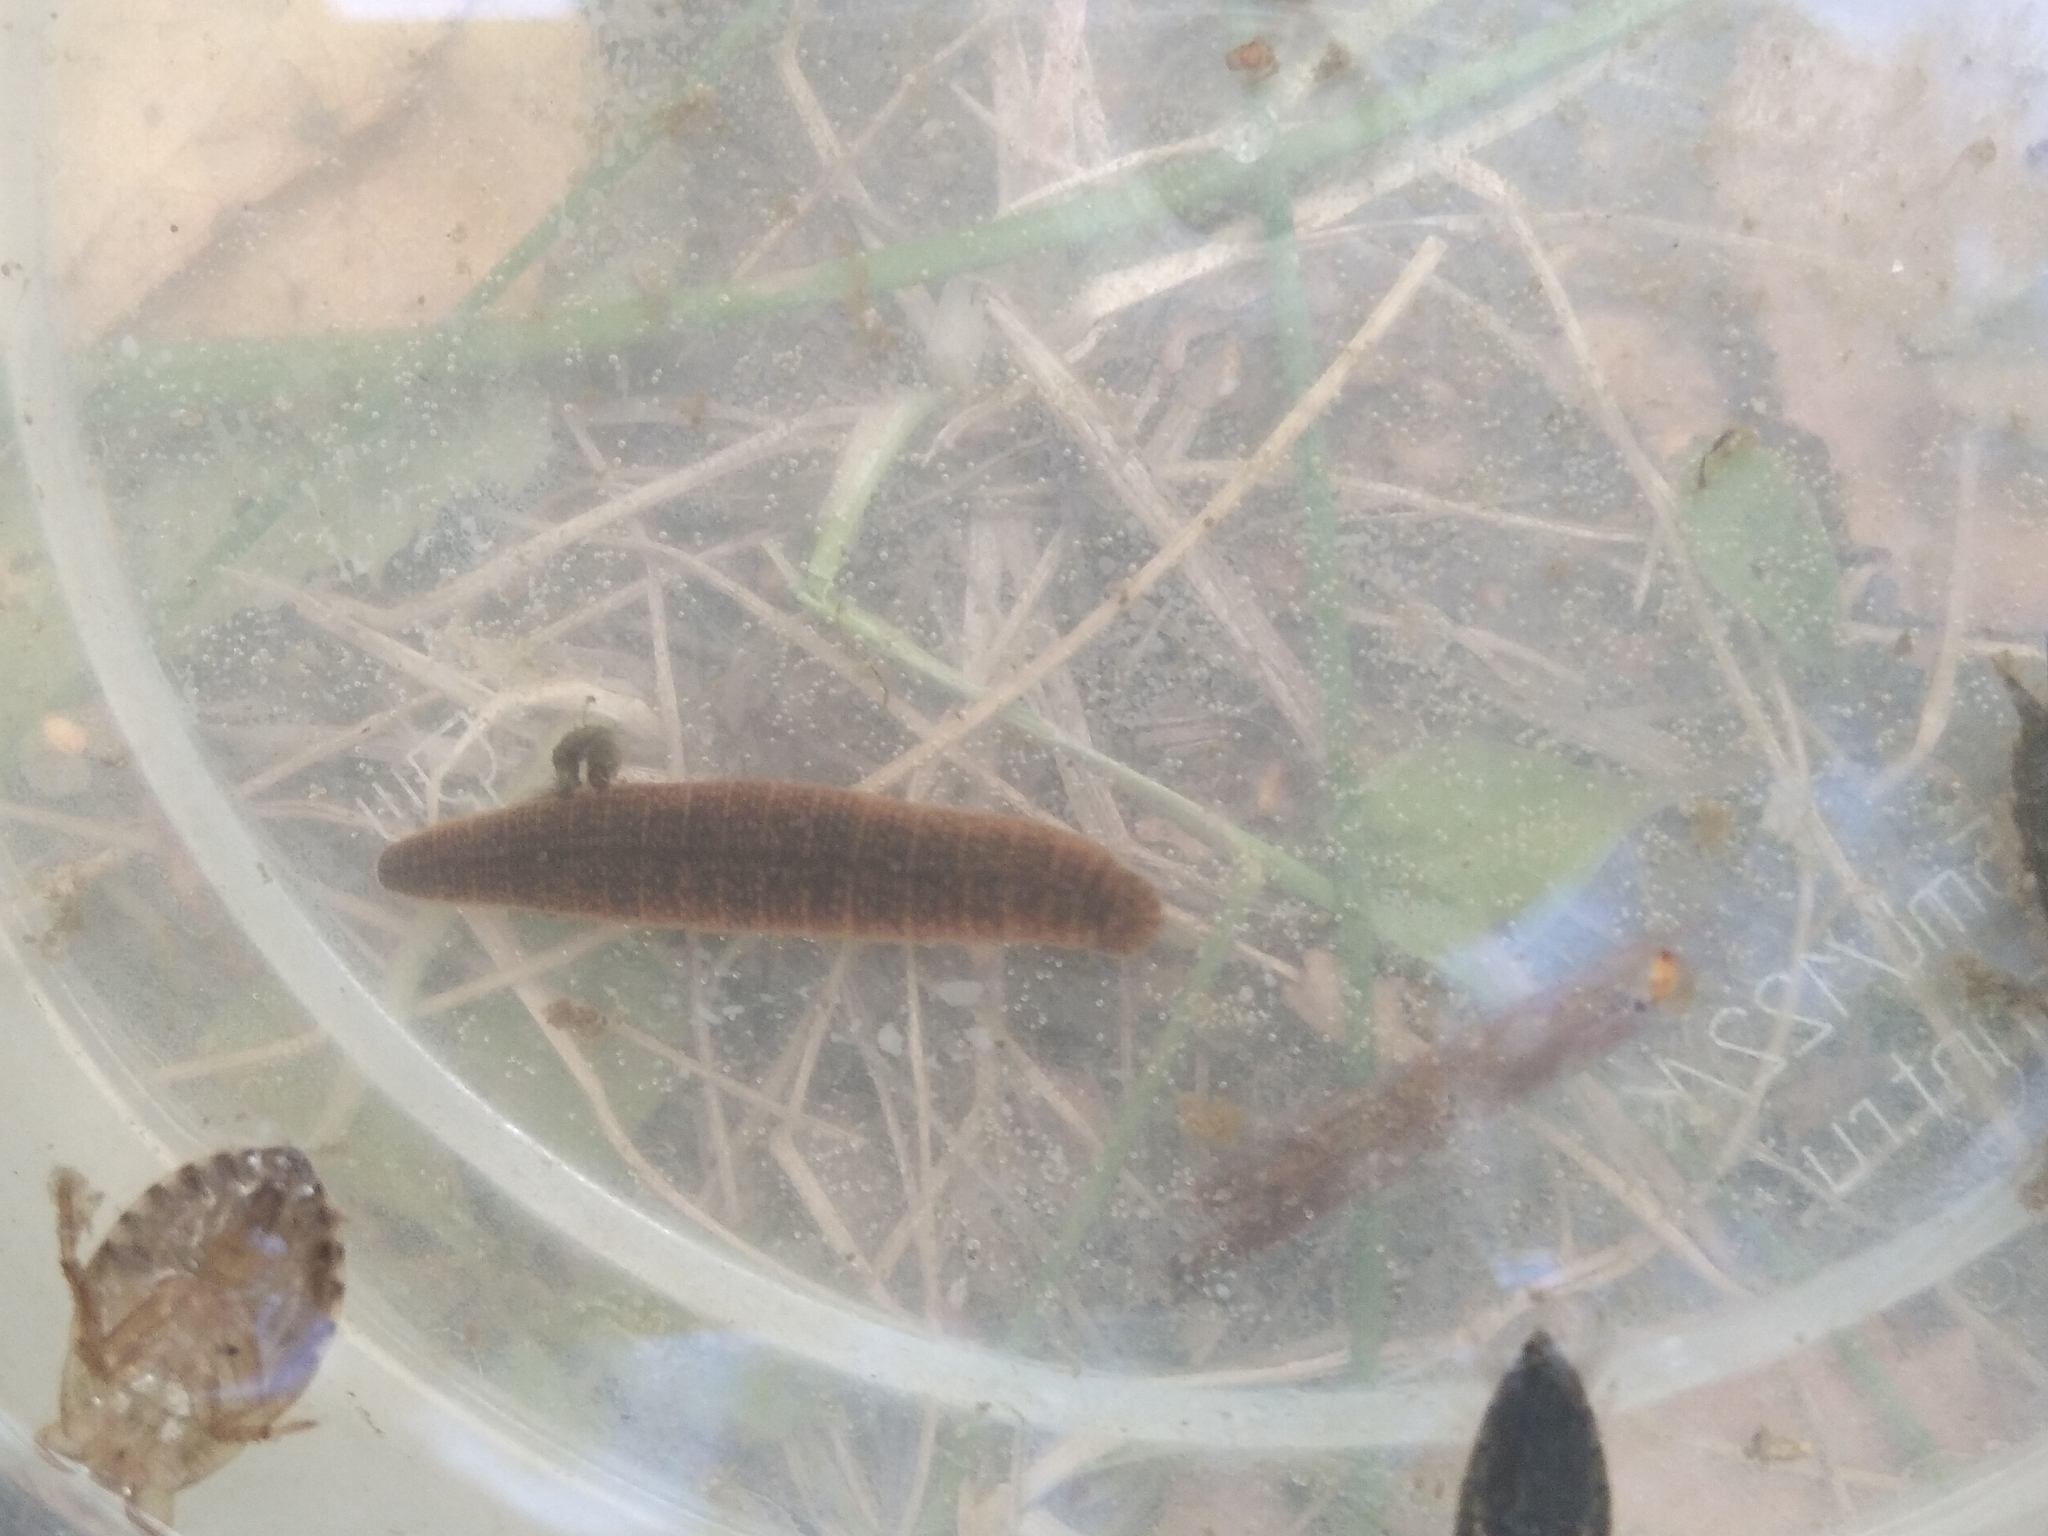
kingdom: Animalia
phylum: Annelida
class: Clitellata
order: Arhynchobdellida
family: Erpobdellidae
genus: Erpobdella
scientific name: Erpobdella octoculata
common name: Leeches
